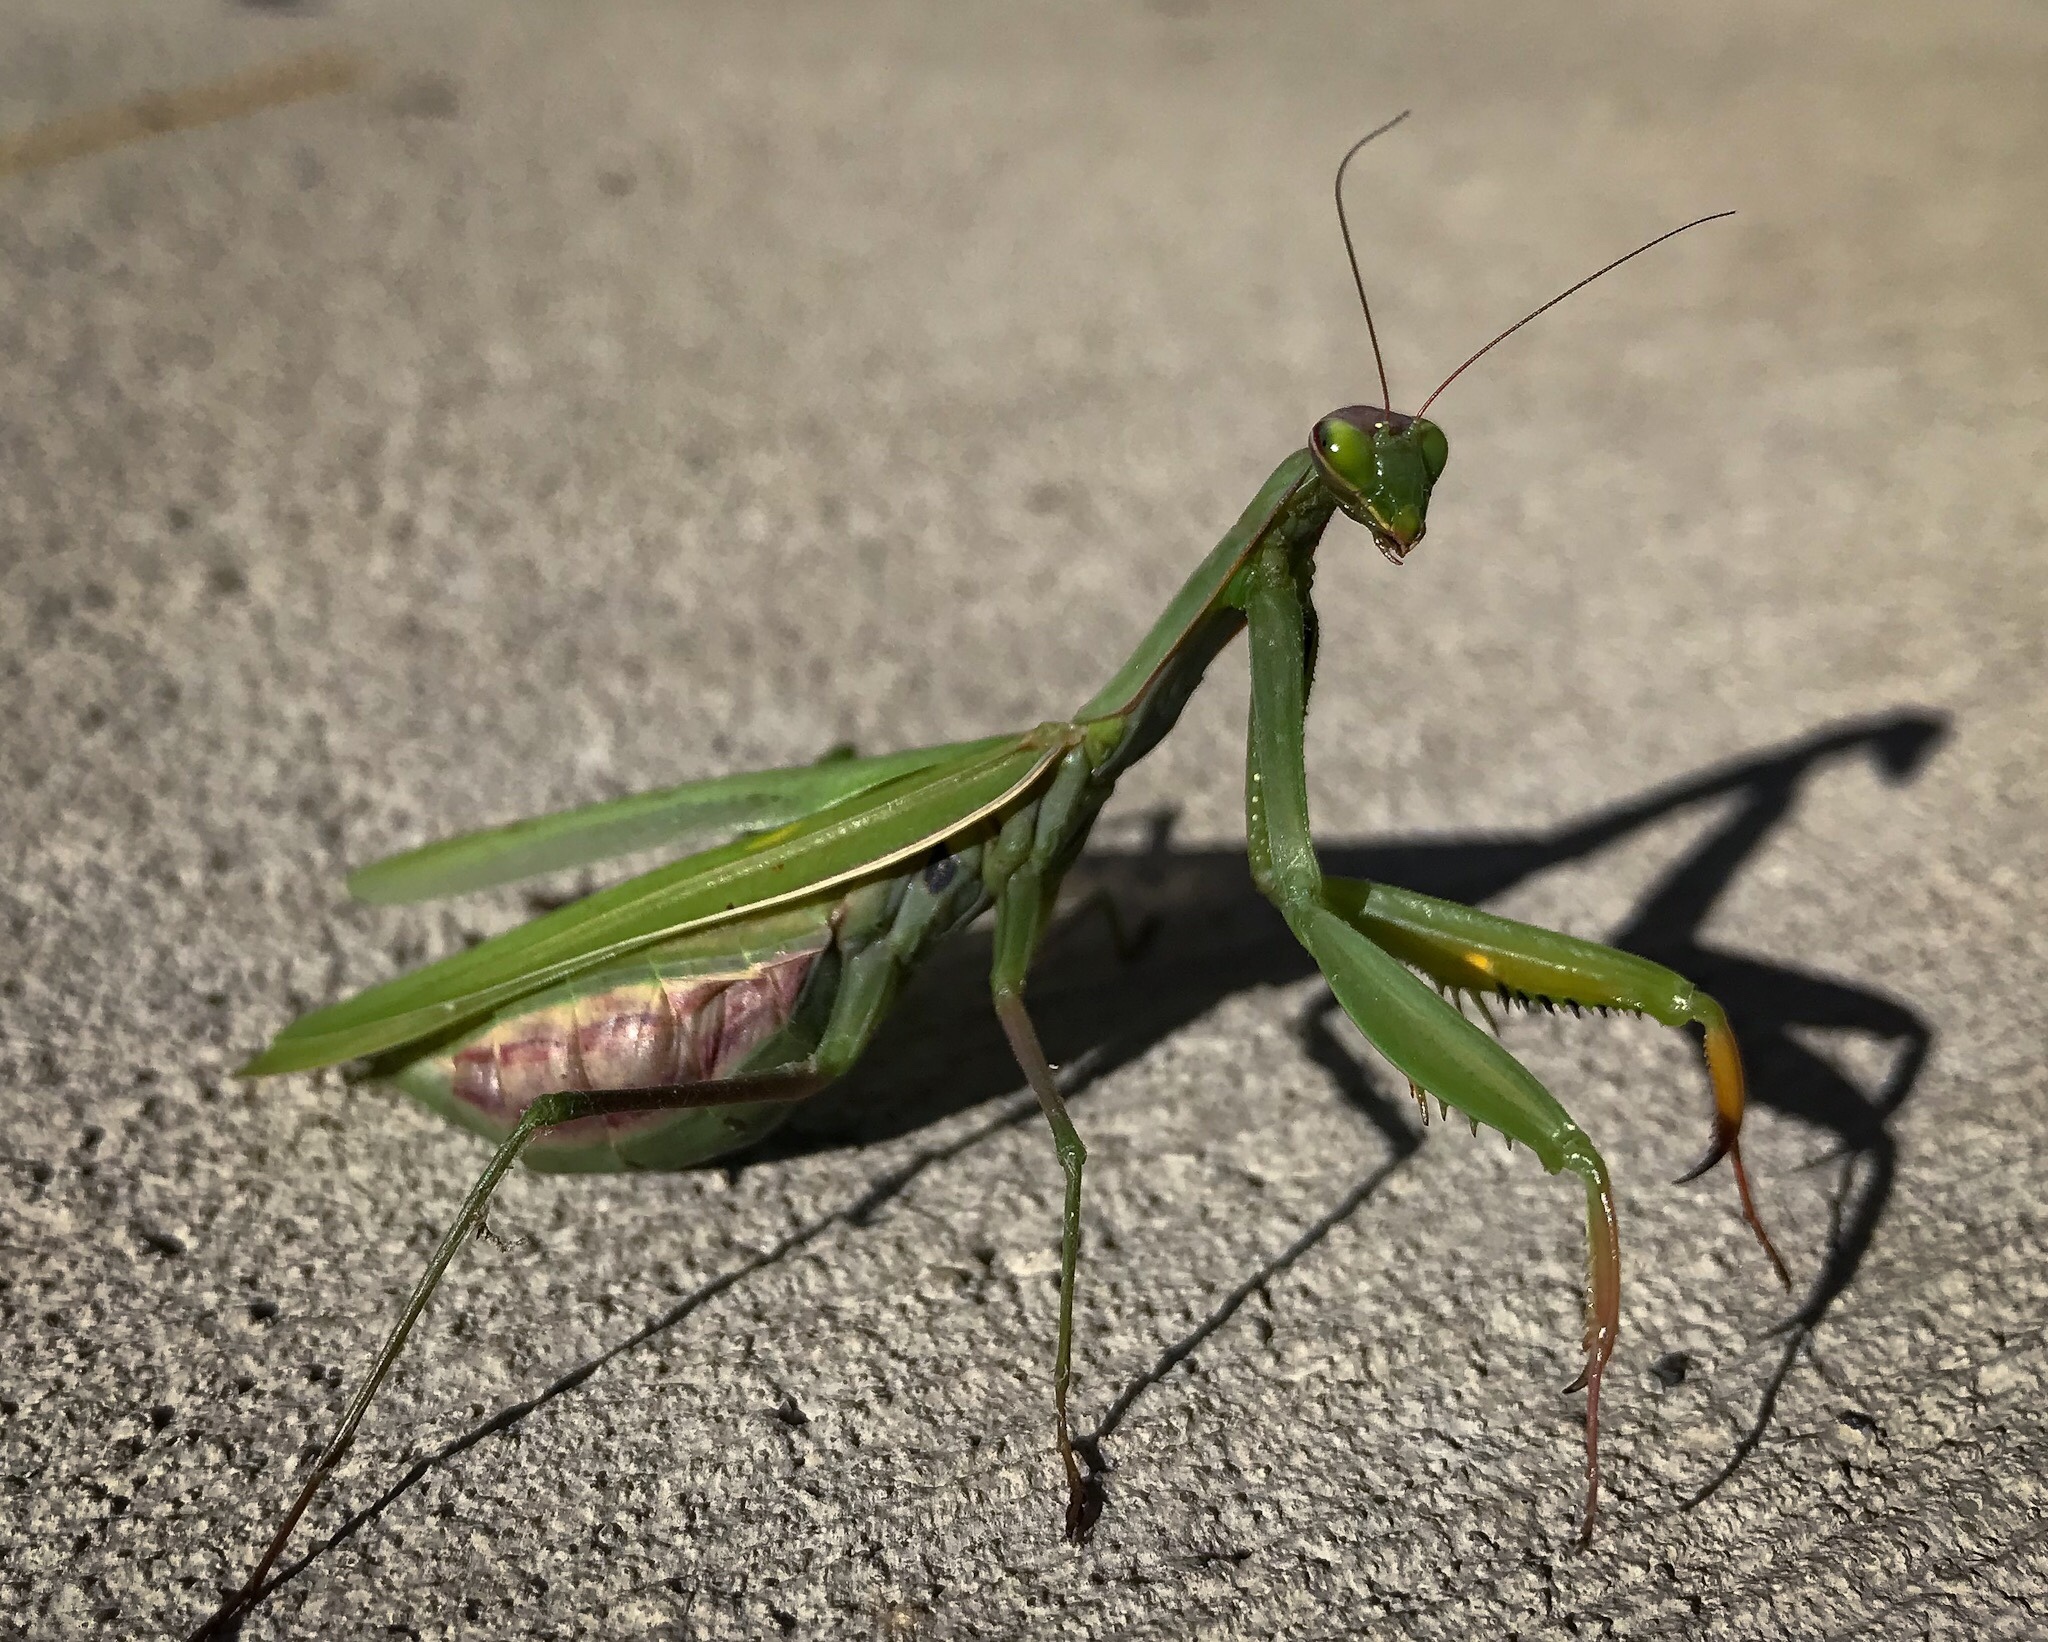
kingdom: Animalia
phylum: Arthropoda
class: Insecta
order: Mantodea
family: Mantidae
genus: Mantis
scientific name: Mantis religiosa
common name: Praying mantis
